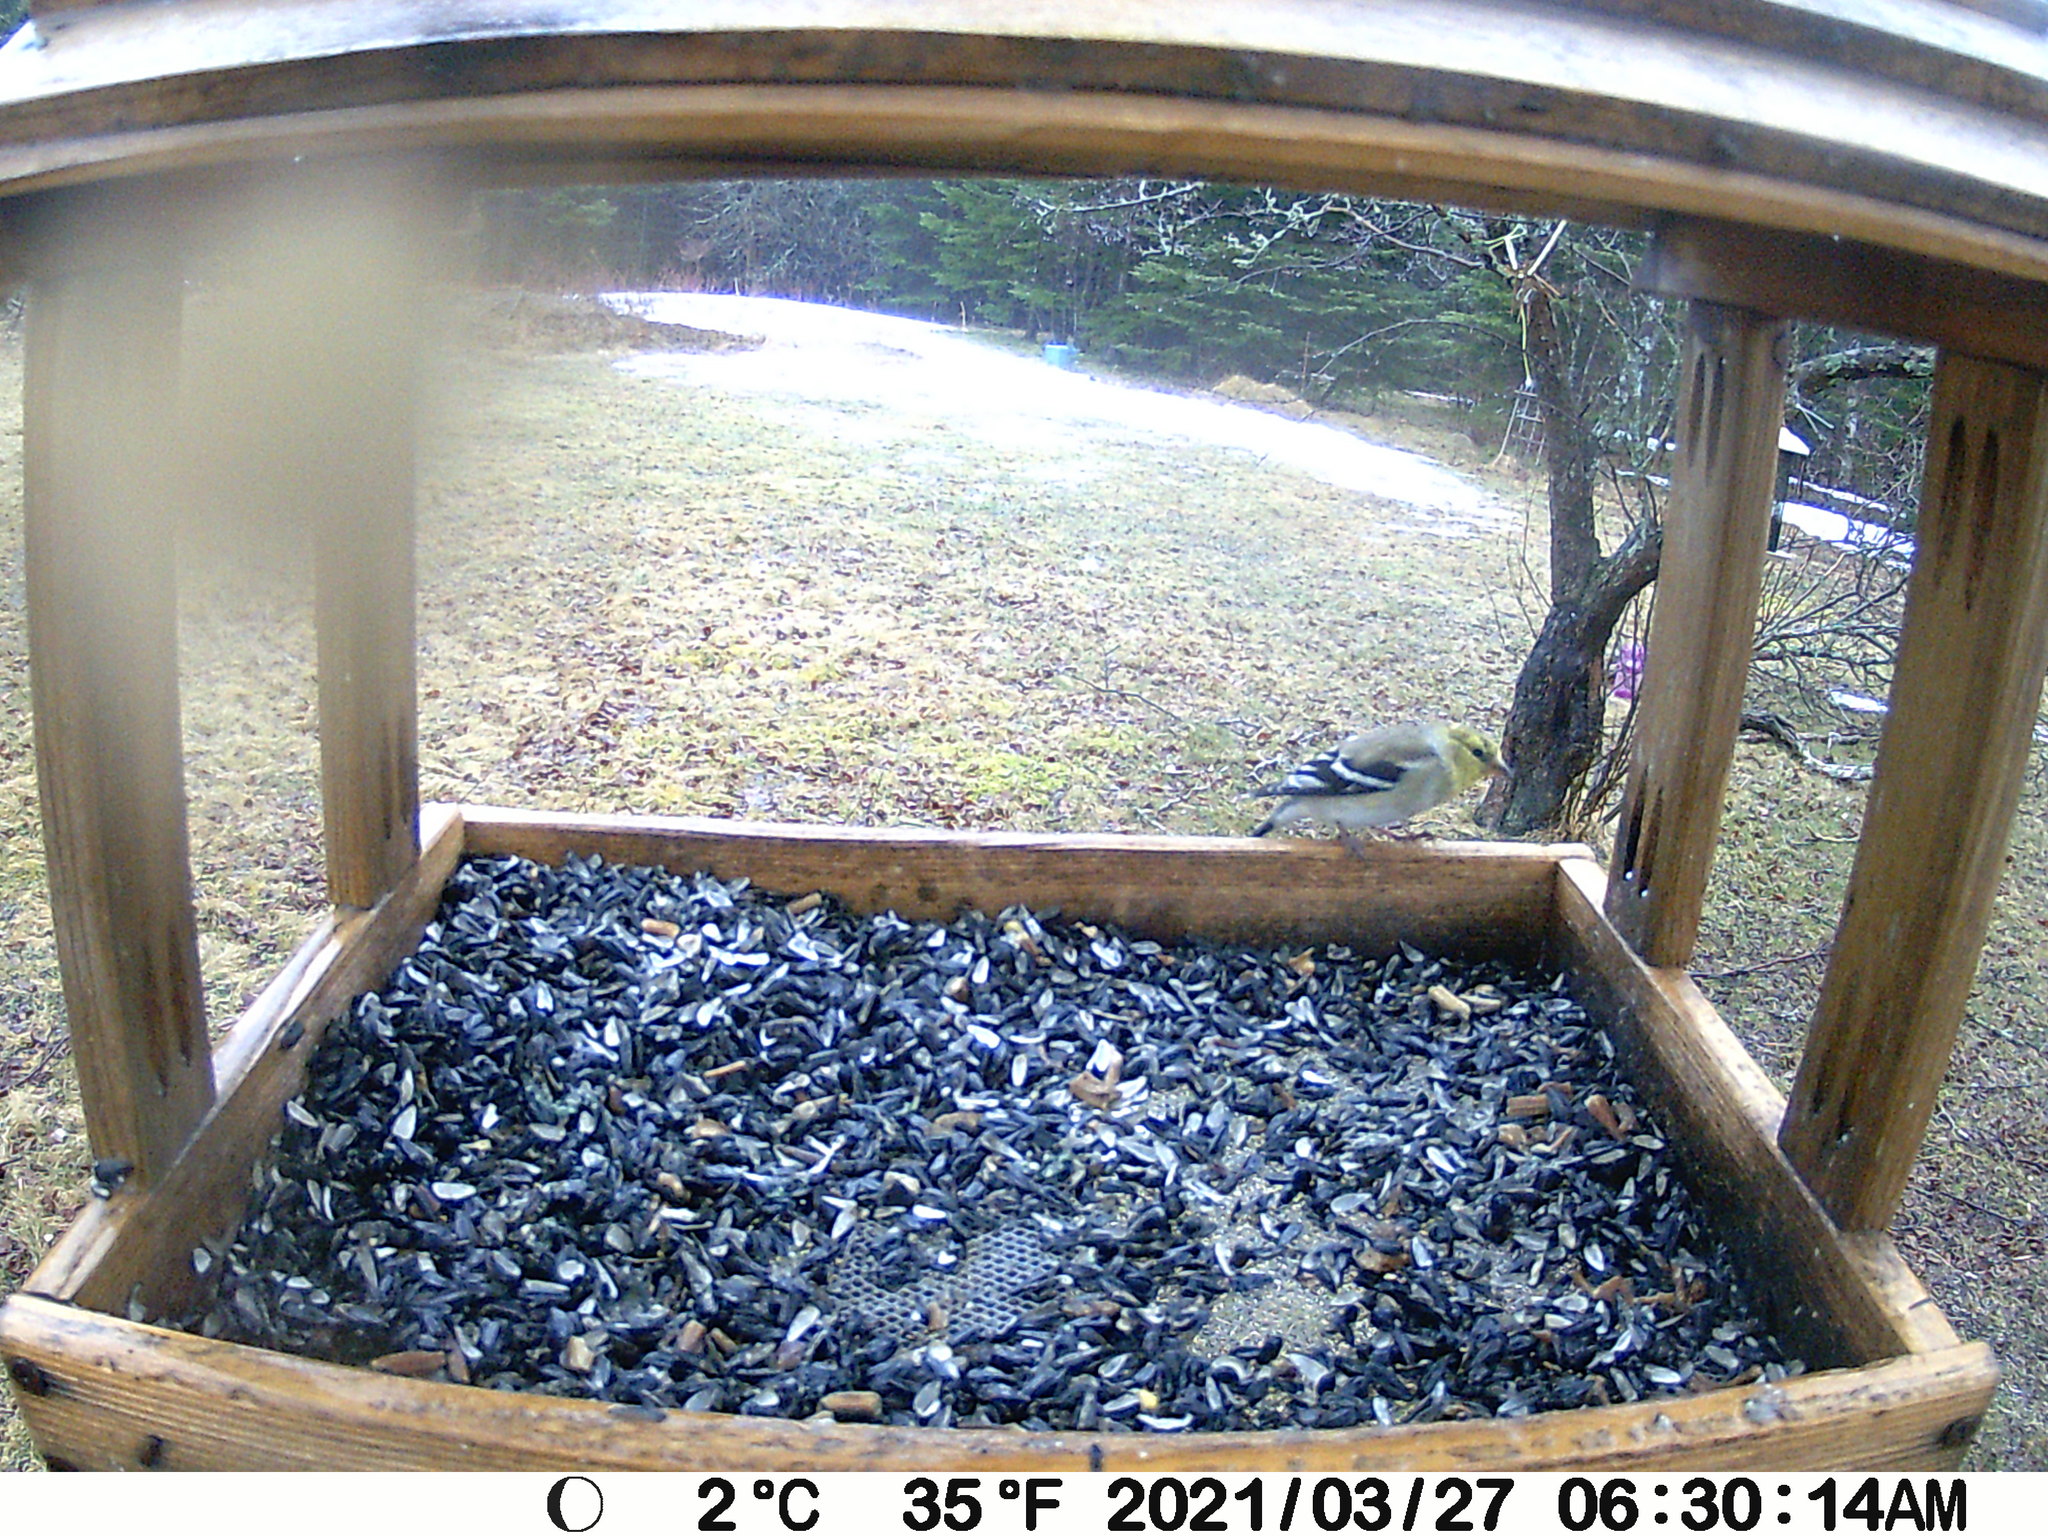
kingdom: Animalia
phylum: Chordata
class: Aves
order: Passeriformes
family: Fringillidae
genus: Spinus
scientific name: Spinus tristis
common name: American goldfinch
